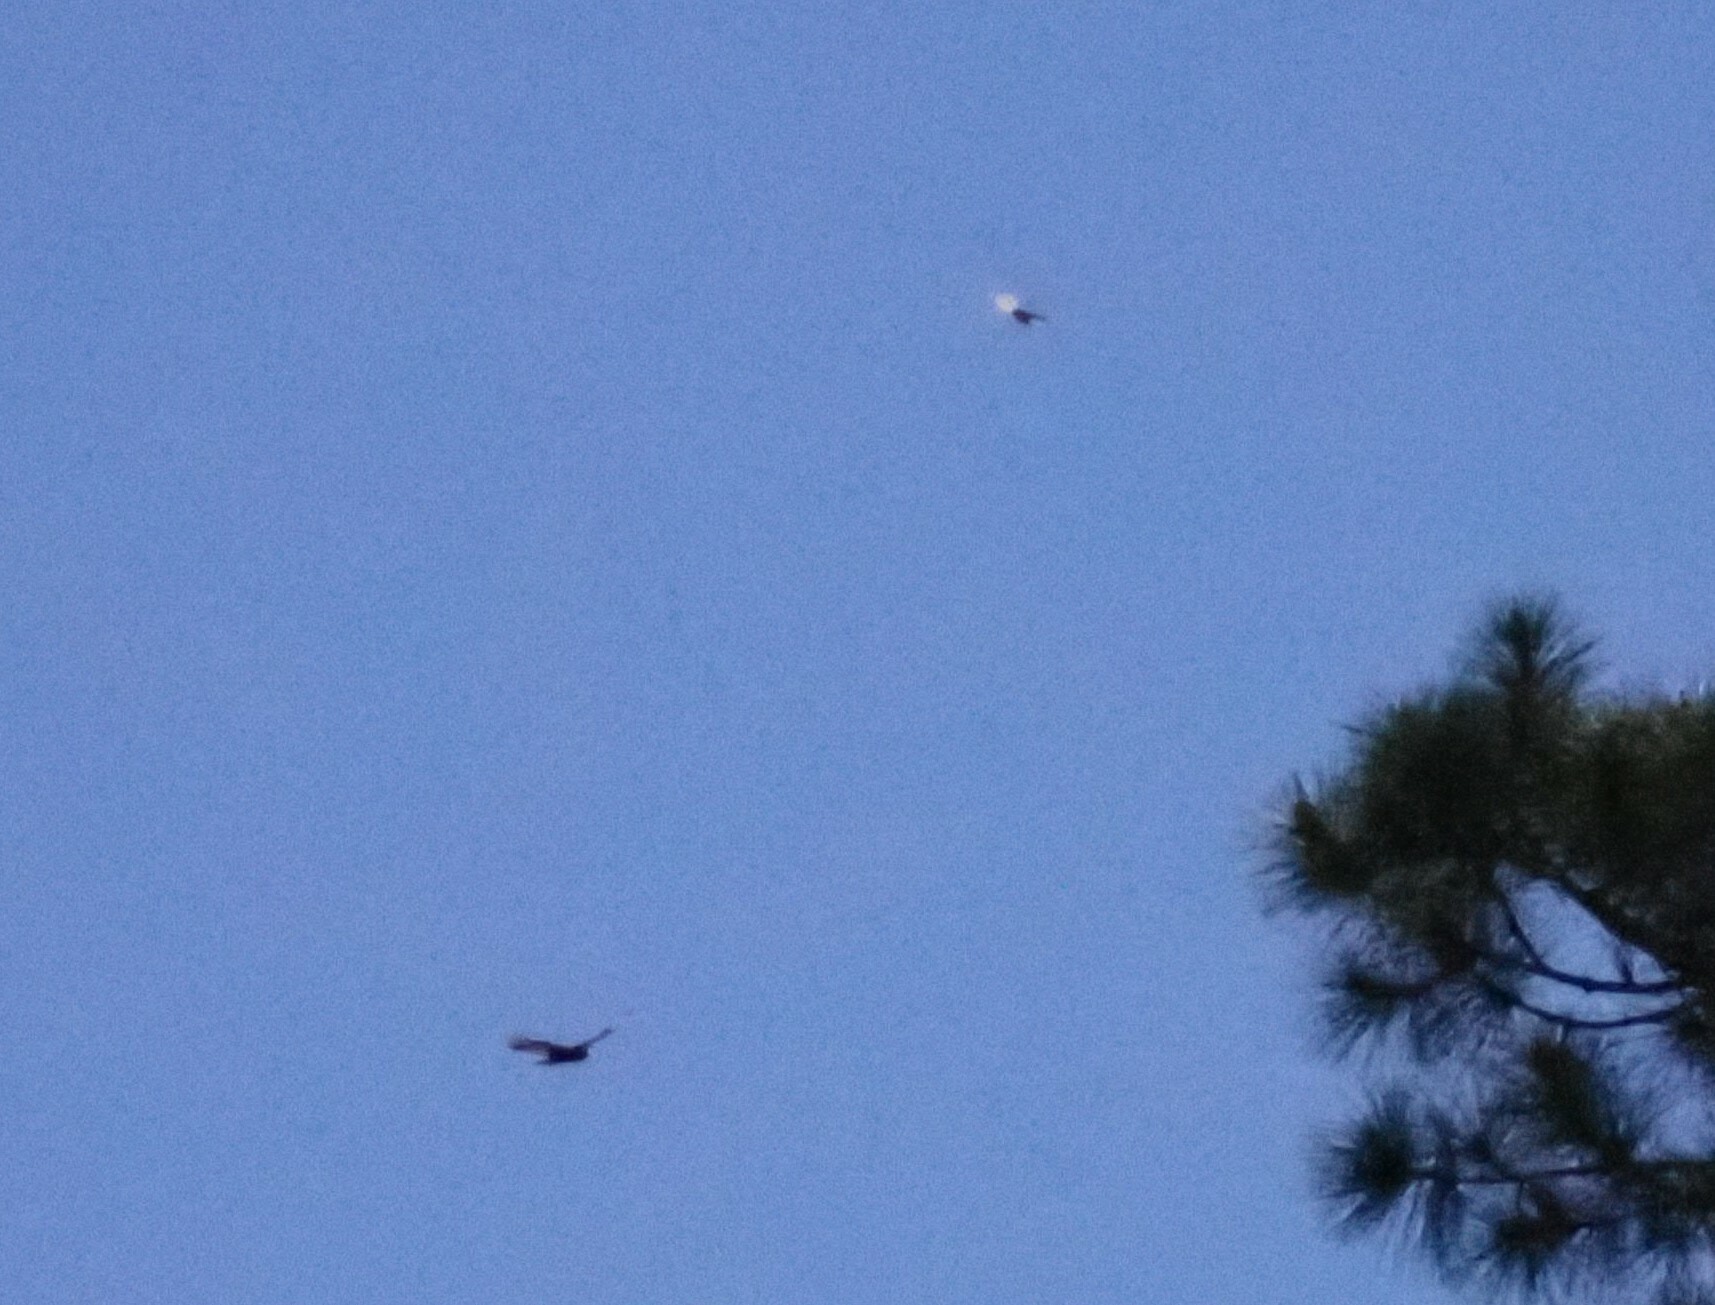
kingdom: Animalia
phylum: Chordata
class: Aves
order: Accipitriformes
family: Cathartidae
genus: Cathartes
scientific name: Cathartes aura
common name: Turkey vulture
